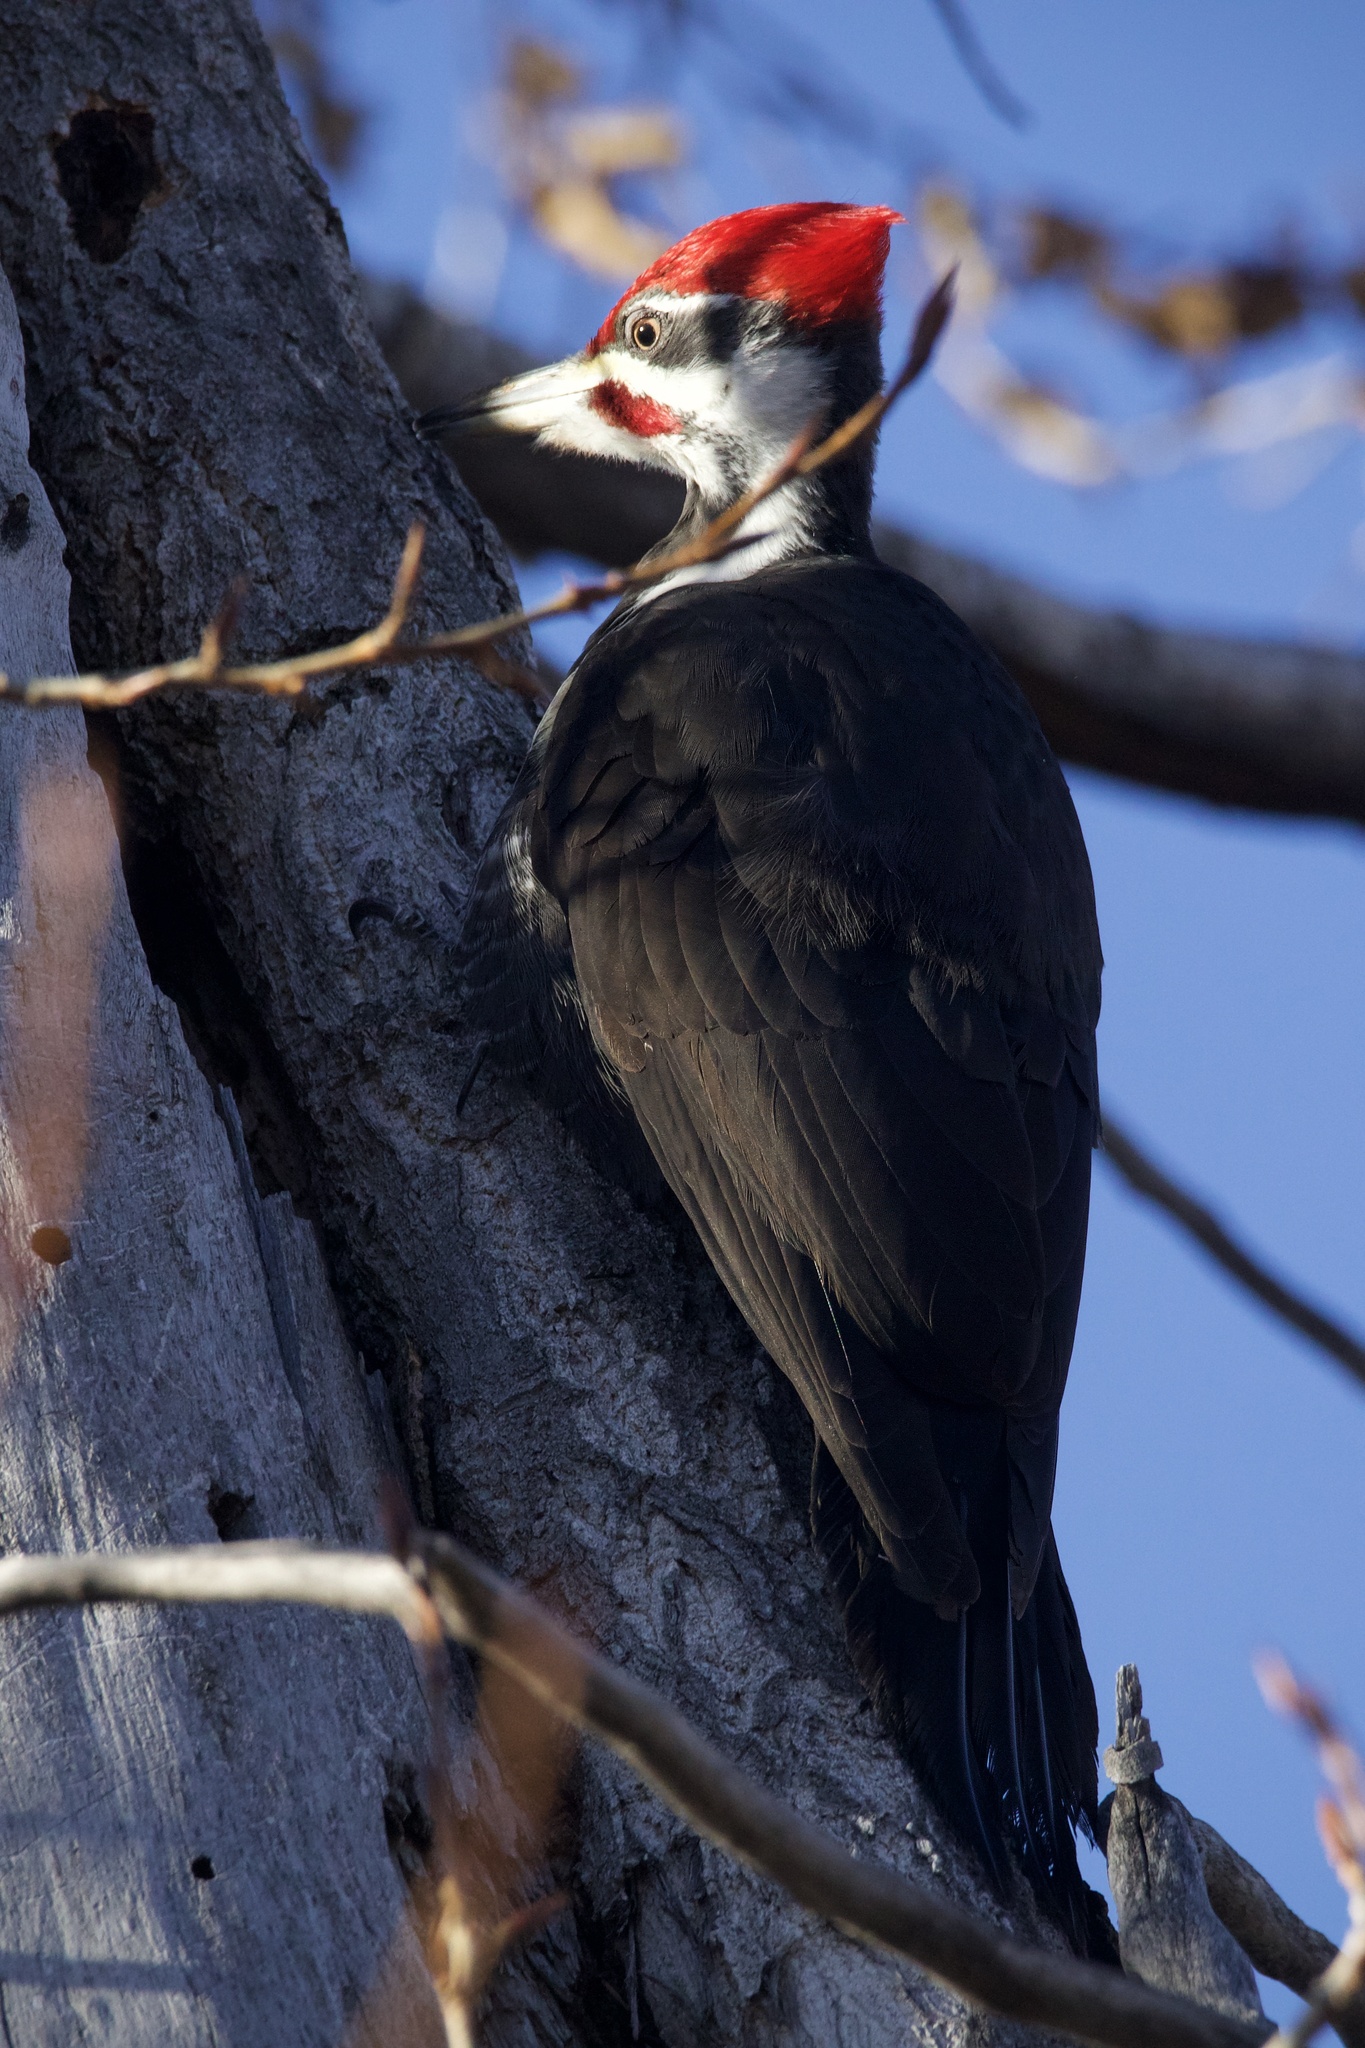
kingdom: Animalia
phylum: Chordata
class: Aves
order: Piciformes
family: Picidae
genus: Dryocopus
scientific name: Dryocopus pileatus
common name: Pileated woodpecker
